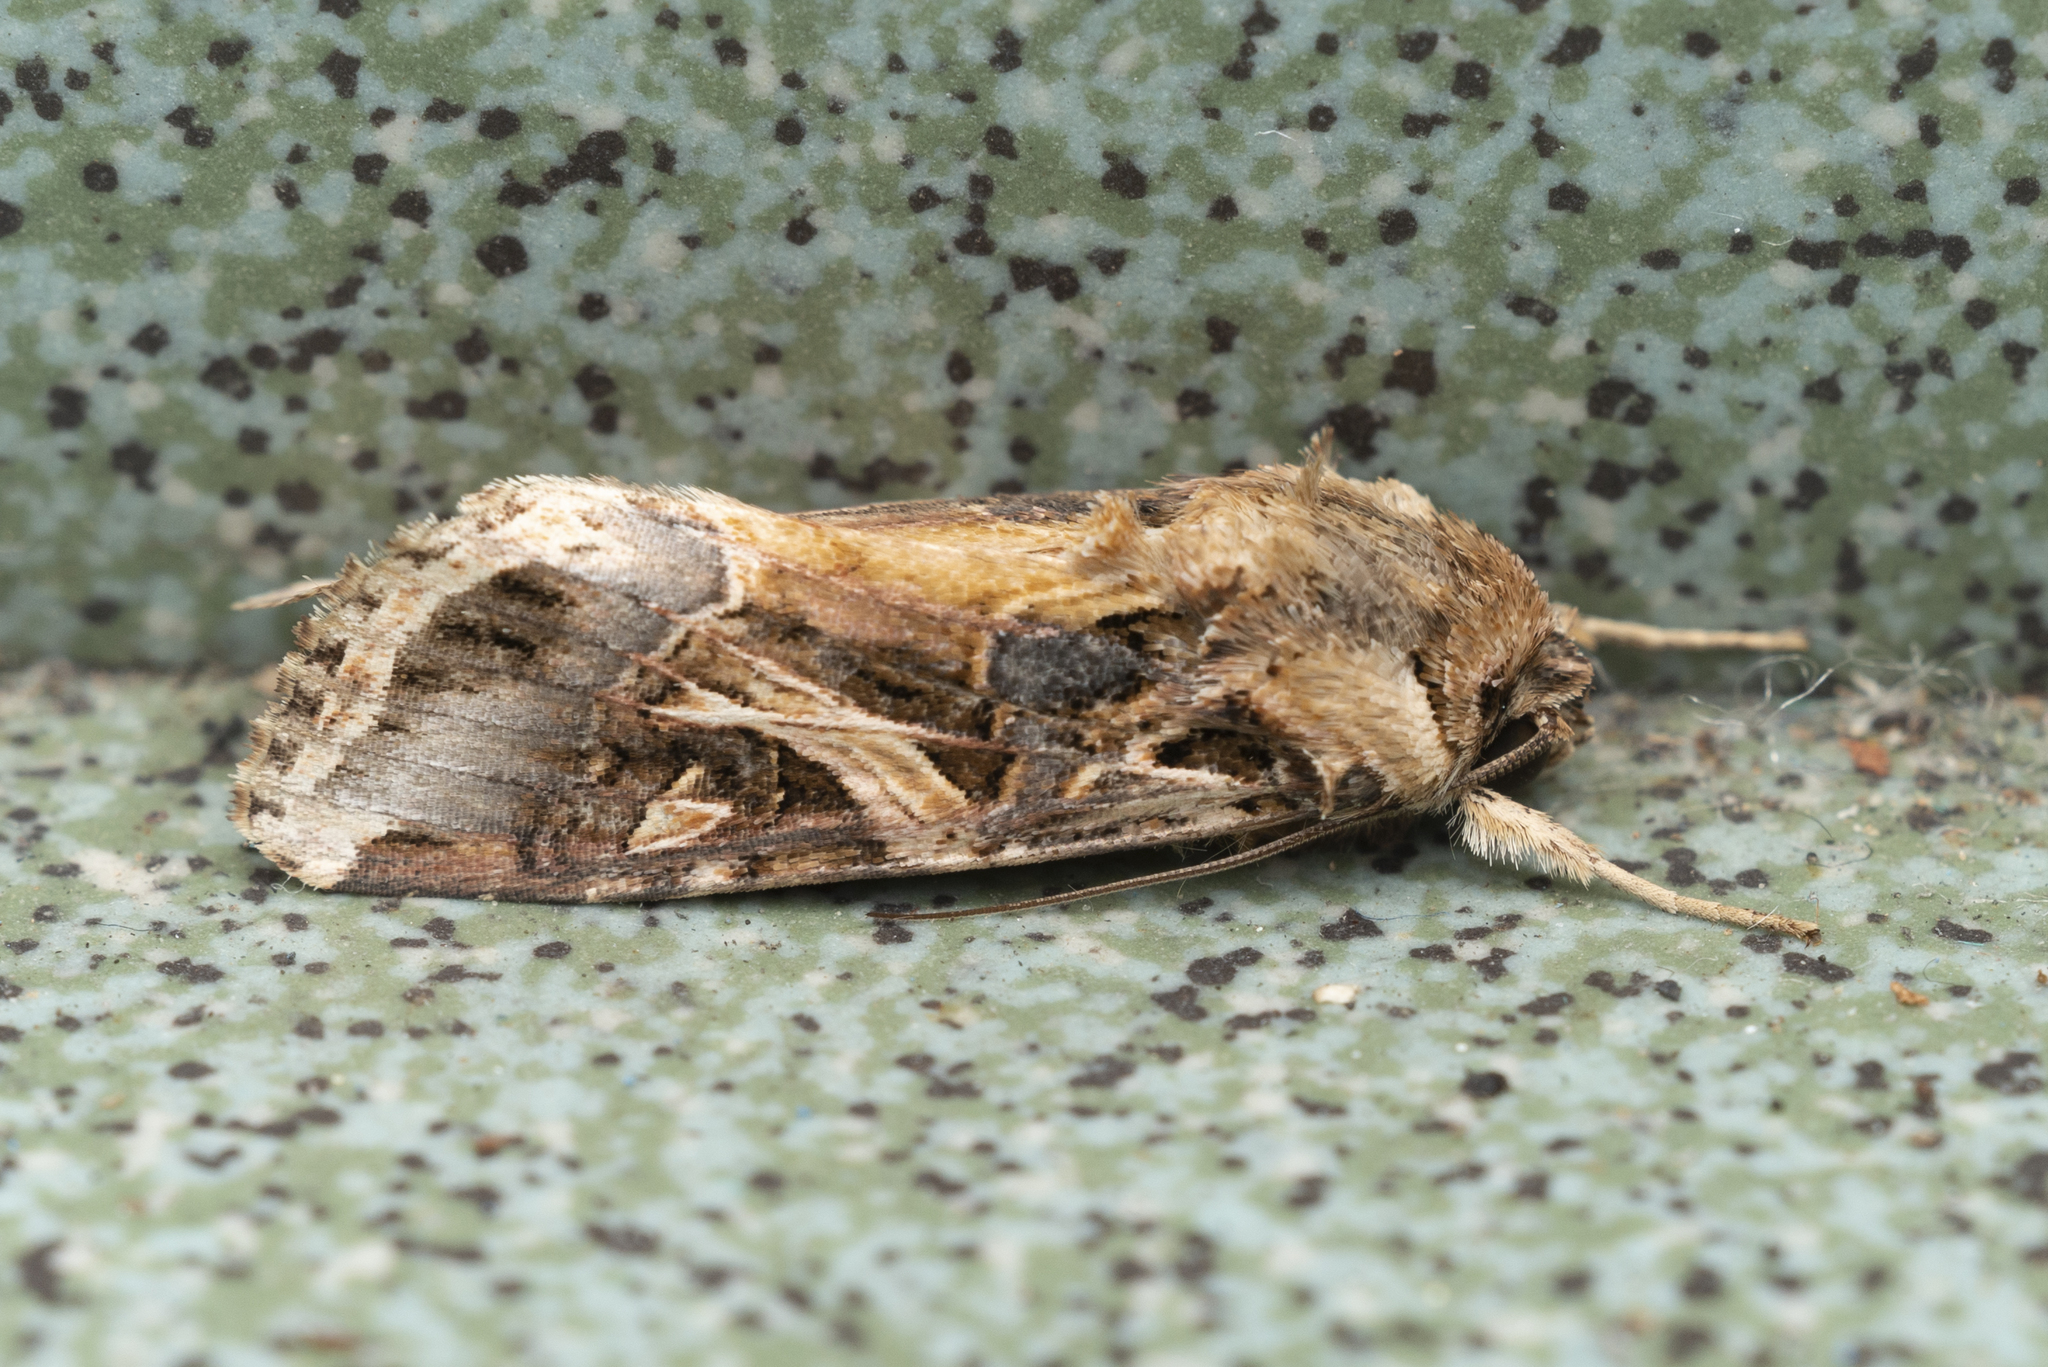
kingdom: Animalia
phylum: Arthropoda
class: Insecta
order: Lepidoptera
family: Noctuidae
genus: Spodoptera
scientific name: Spodoptera litura
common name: Asian cotton leafworm
